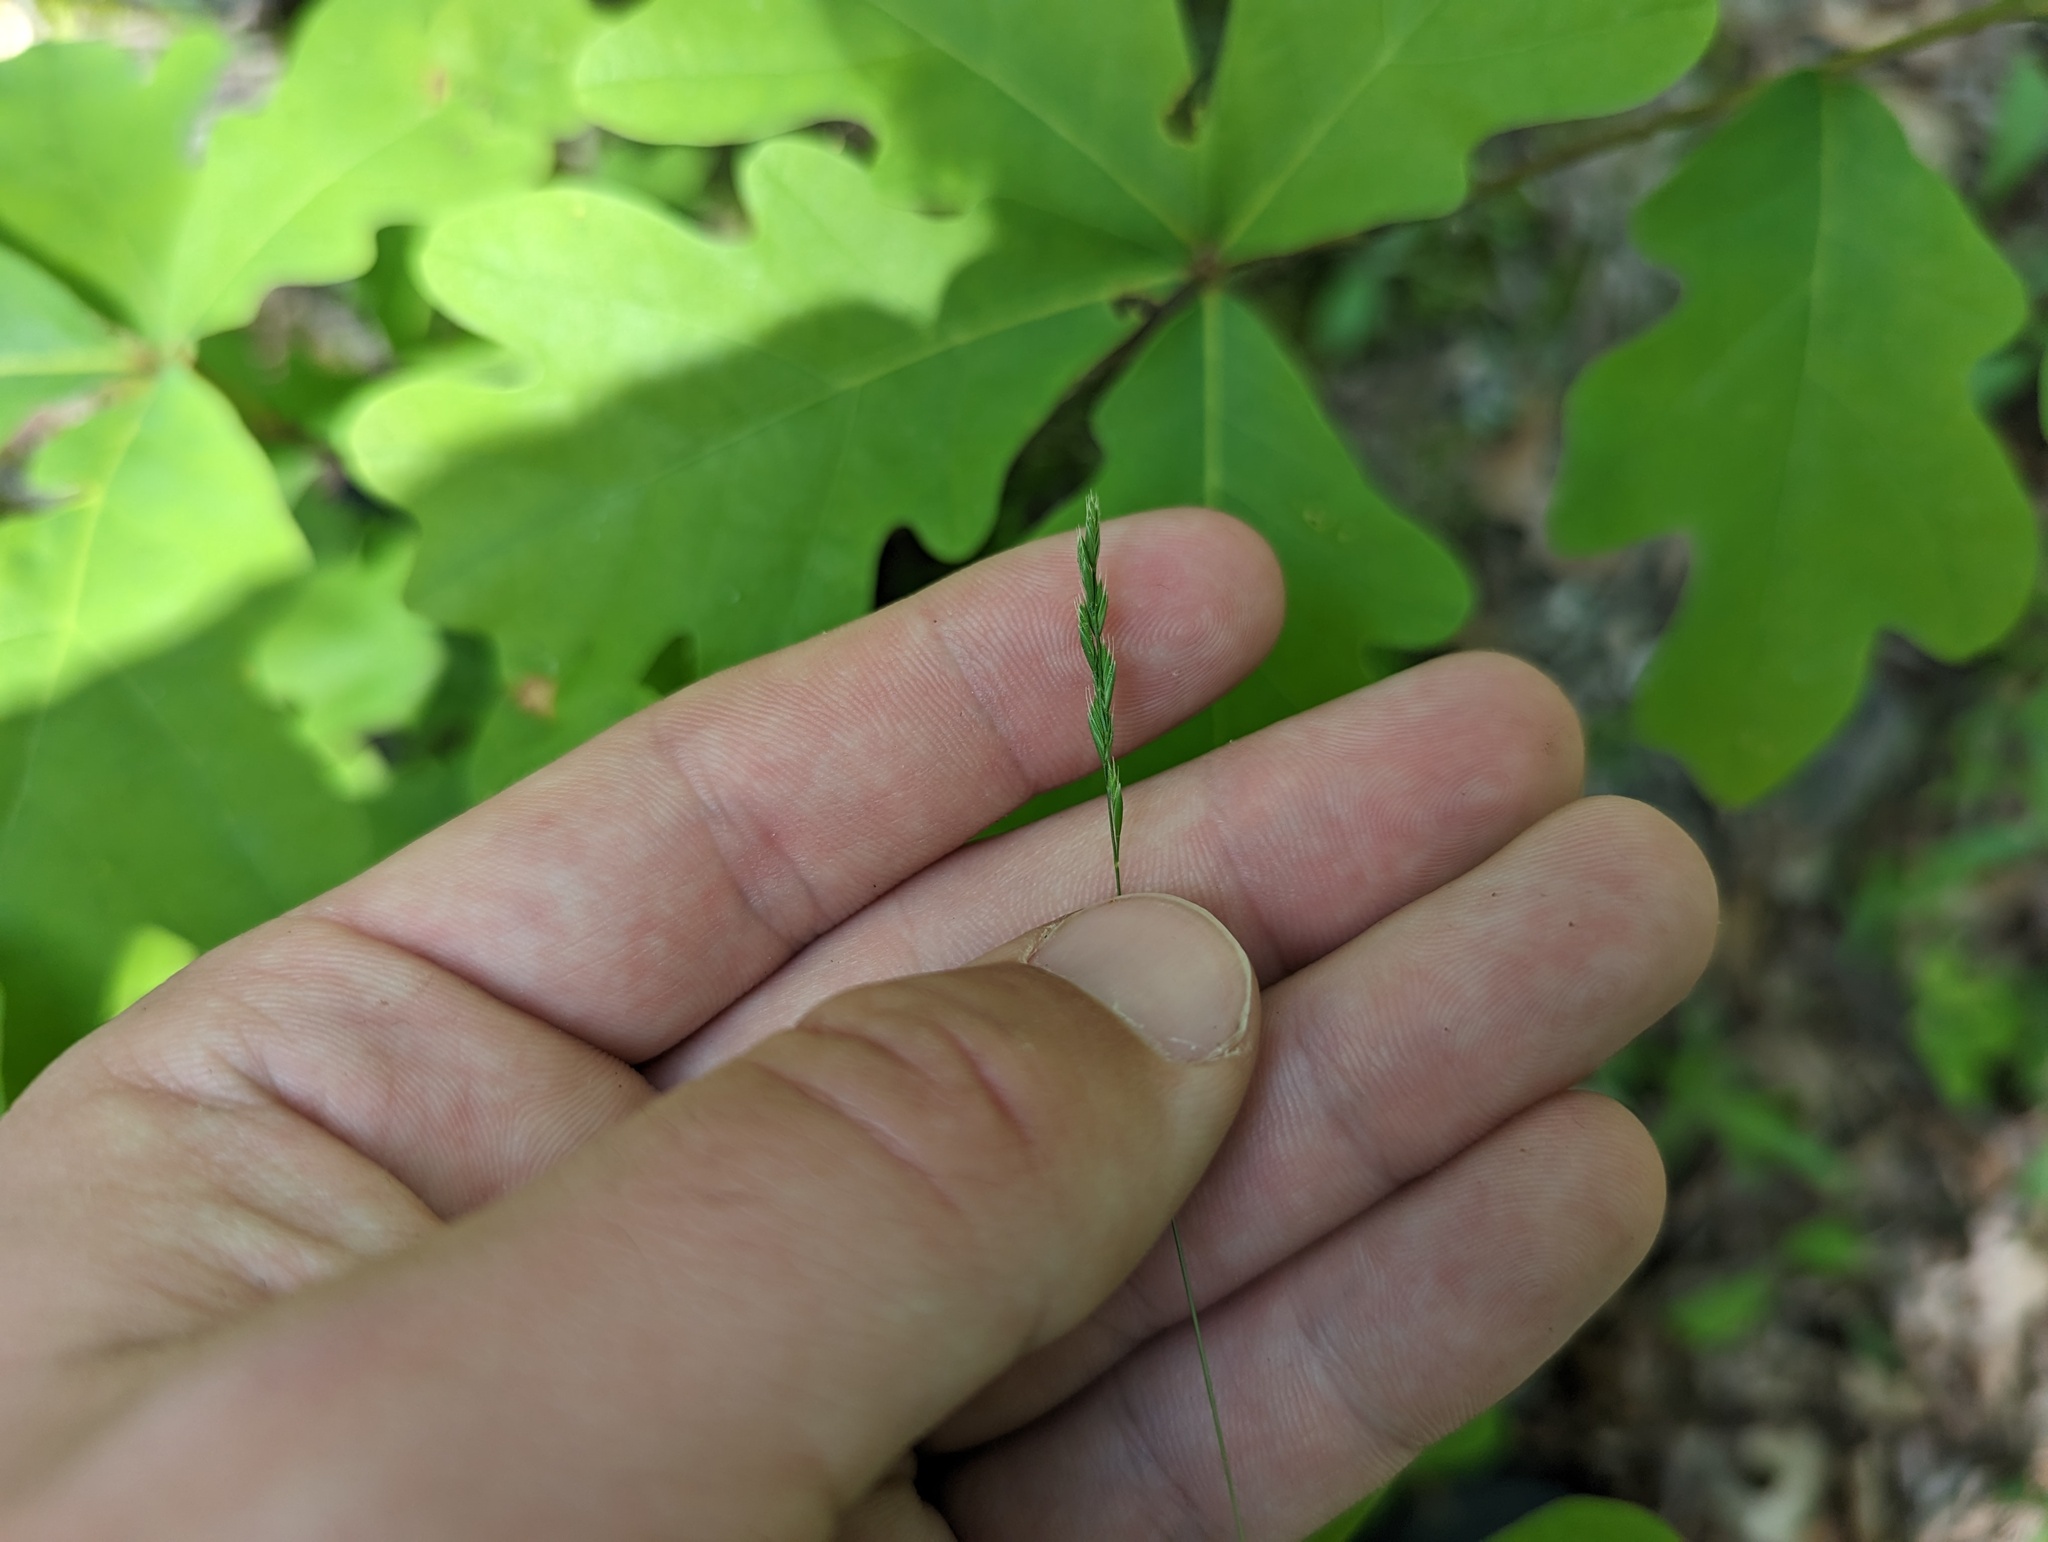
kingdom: Plantae
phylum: Tracheophyta
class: Liliopsida
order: Poales
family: Poaceae
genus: Festuca
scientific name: Festuca octoflora
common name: Sixweeks grass
